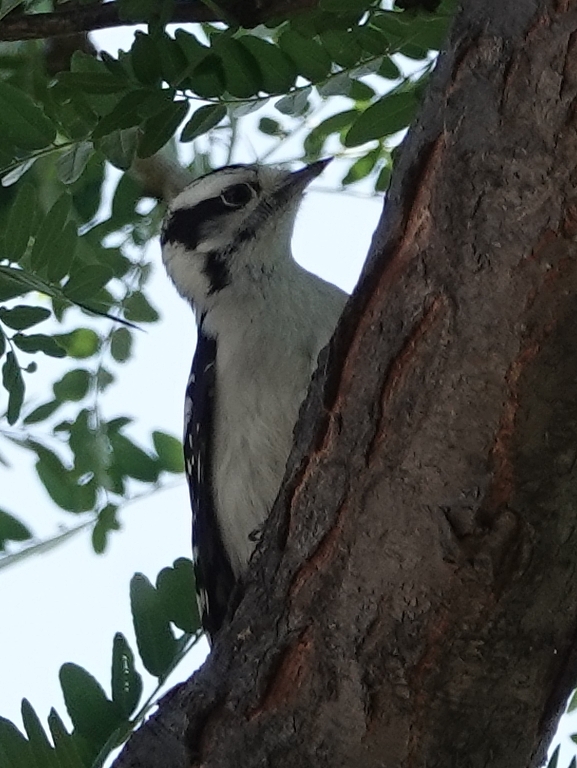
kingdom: Animalia
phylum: Chordata
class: Aves
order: Piciformes
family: Picidae
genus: Dryobates
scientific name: Dryobates pubescens
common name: Downy woodpecker
